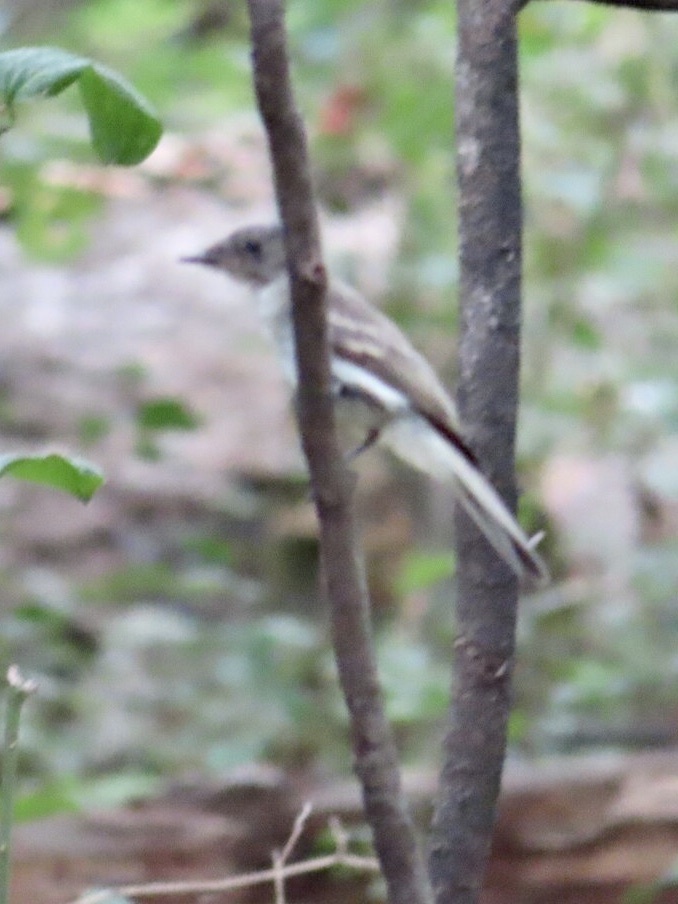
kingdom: Animalia
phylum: Chordata
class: Aves
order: Passeriformes
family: Tyrannidae
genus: Contopus
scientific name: Contopus virens
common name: Eastern wood-pewee
